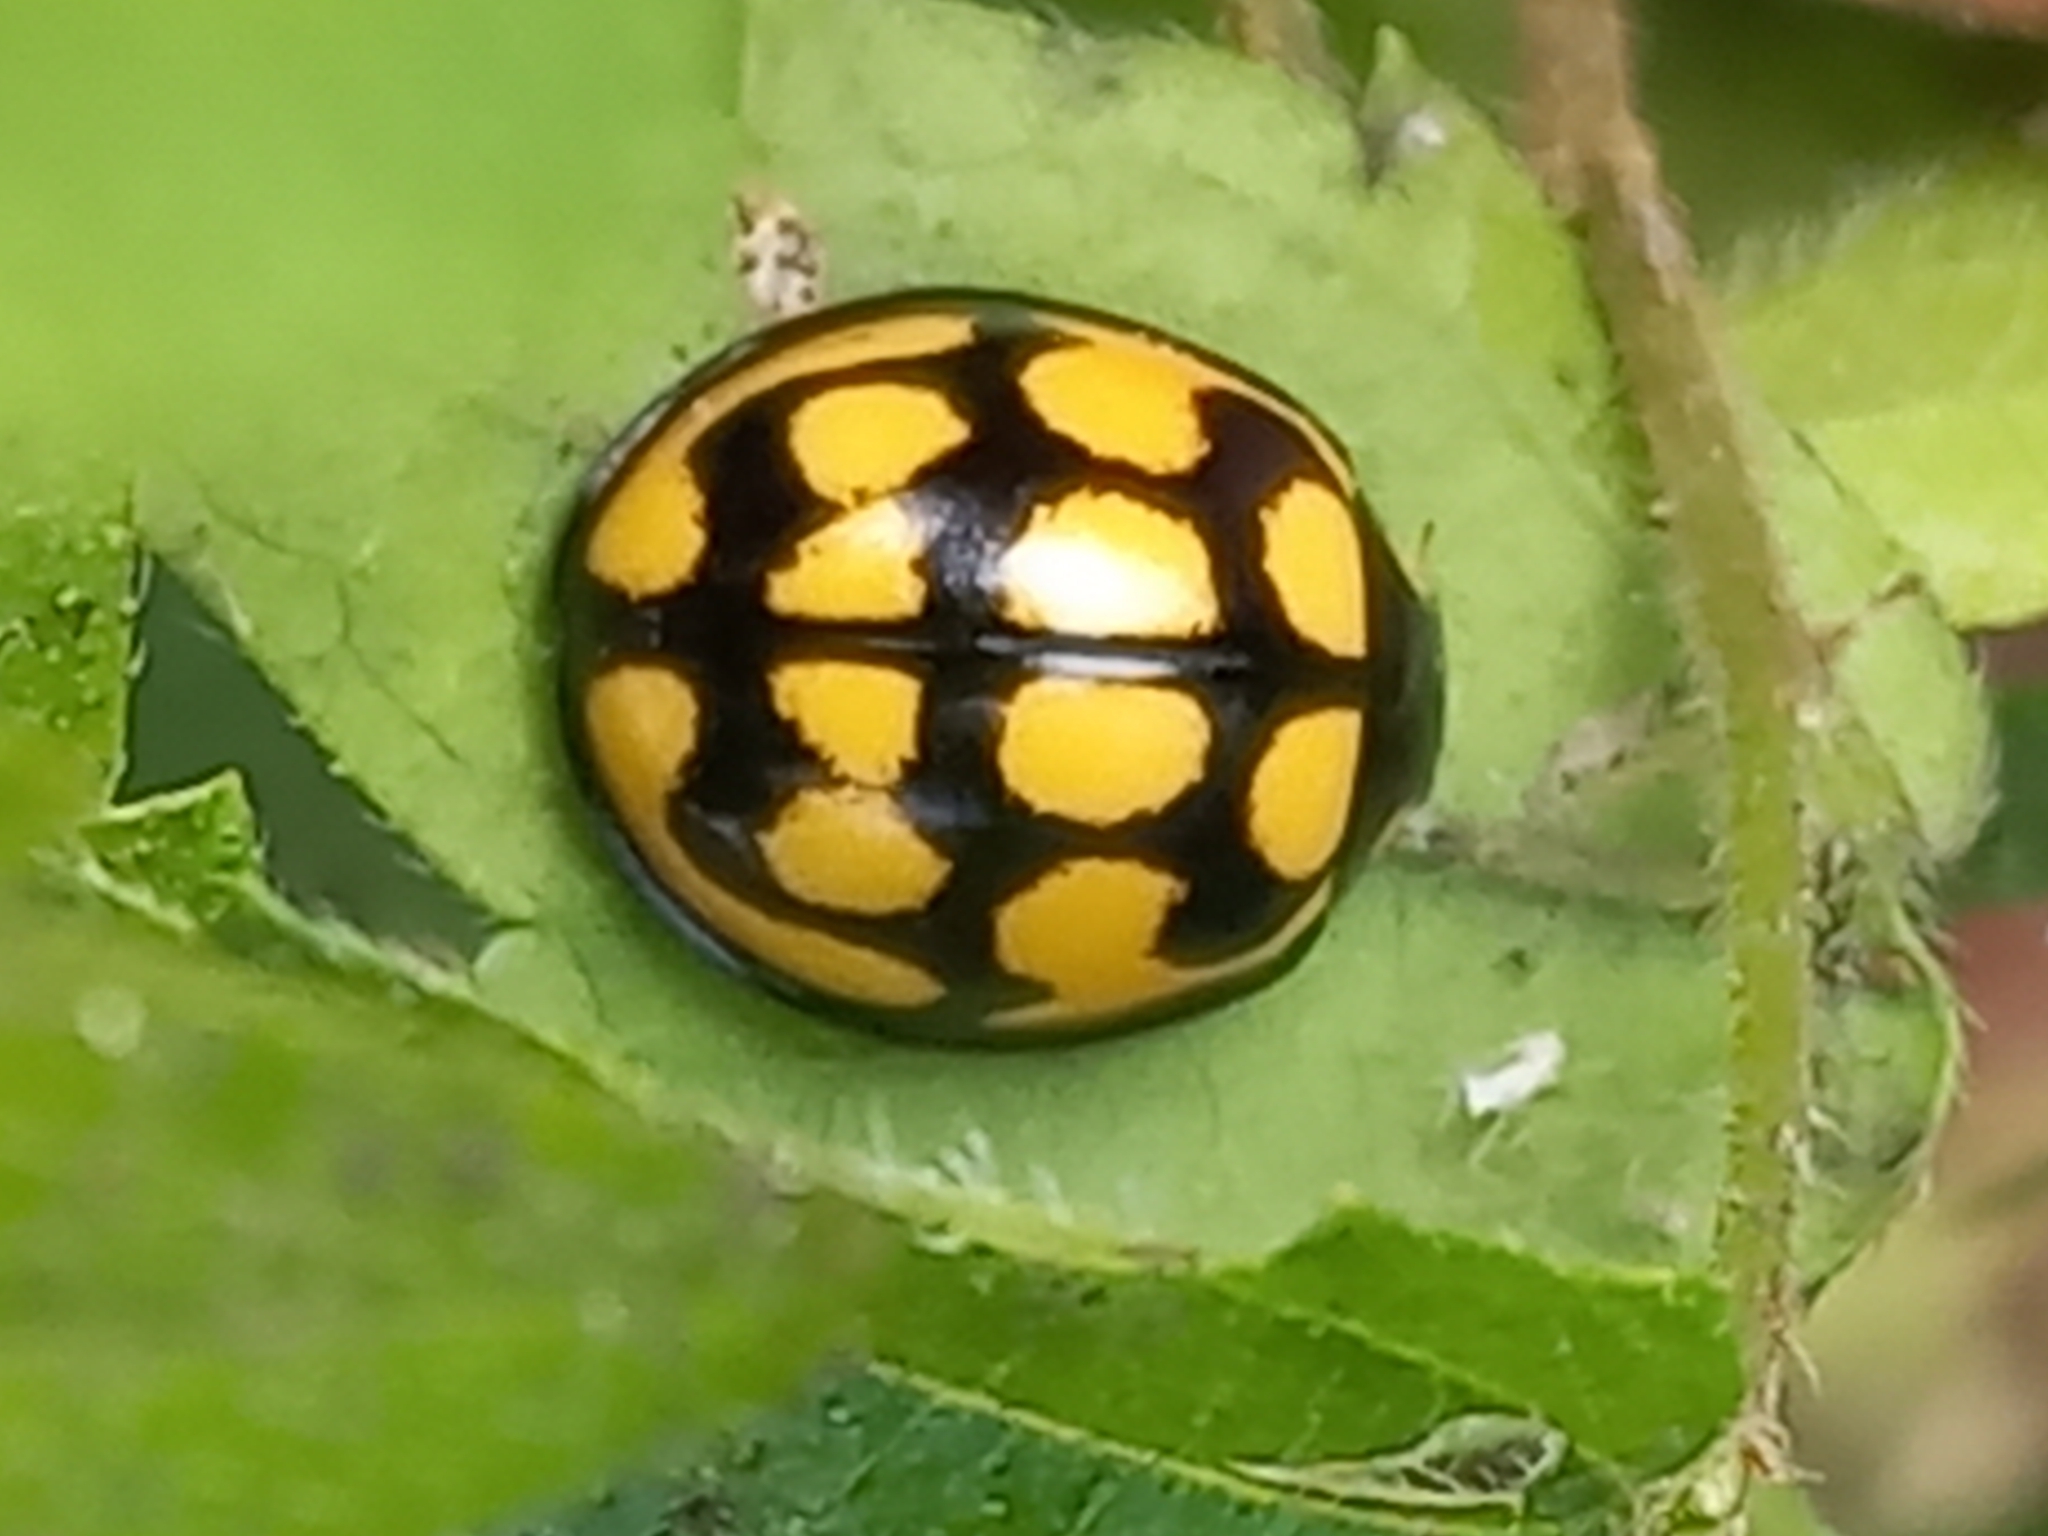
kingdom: Animalia
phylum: Arthropoda
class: Insecta
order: Coleoptera
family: Coccinellidae
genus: Cheilomenes
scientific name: Cheilomenes lunata
